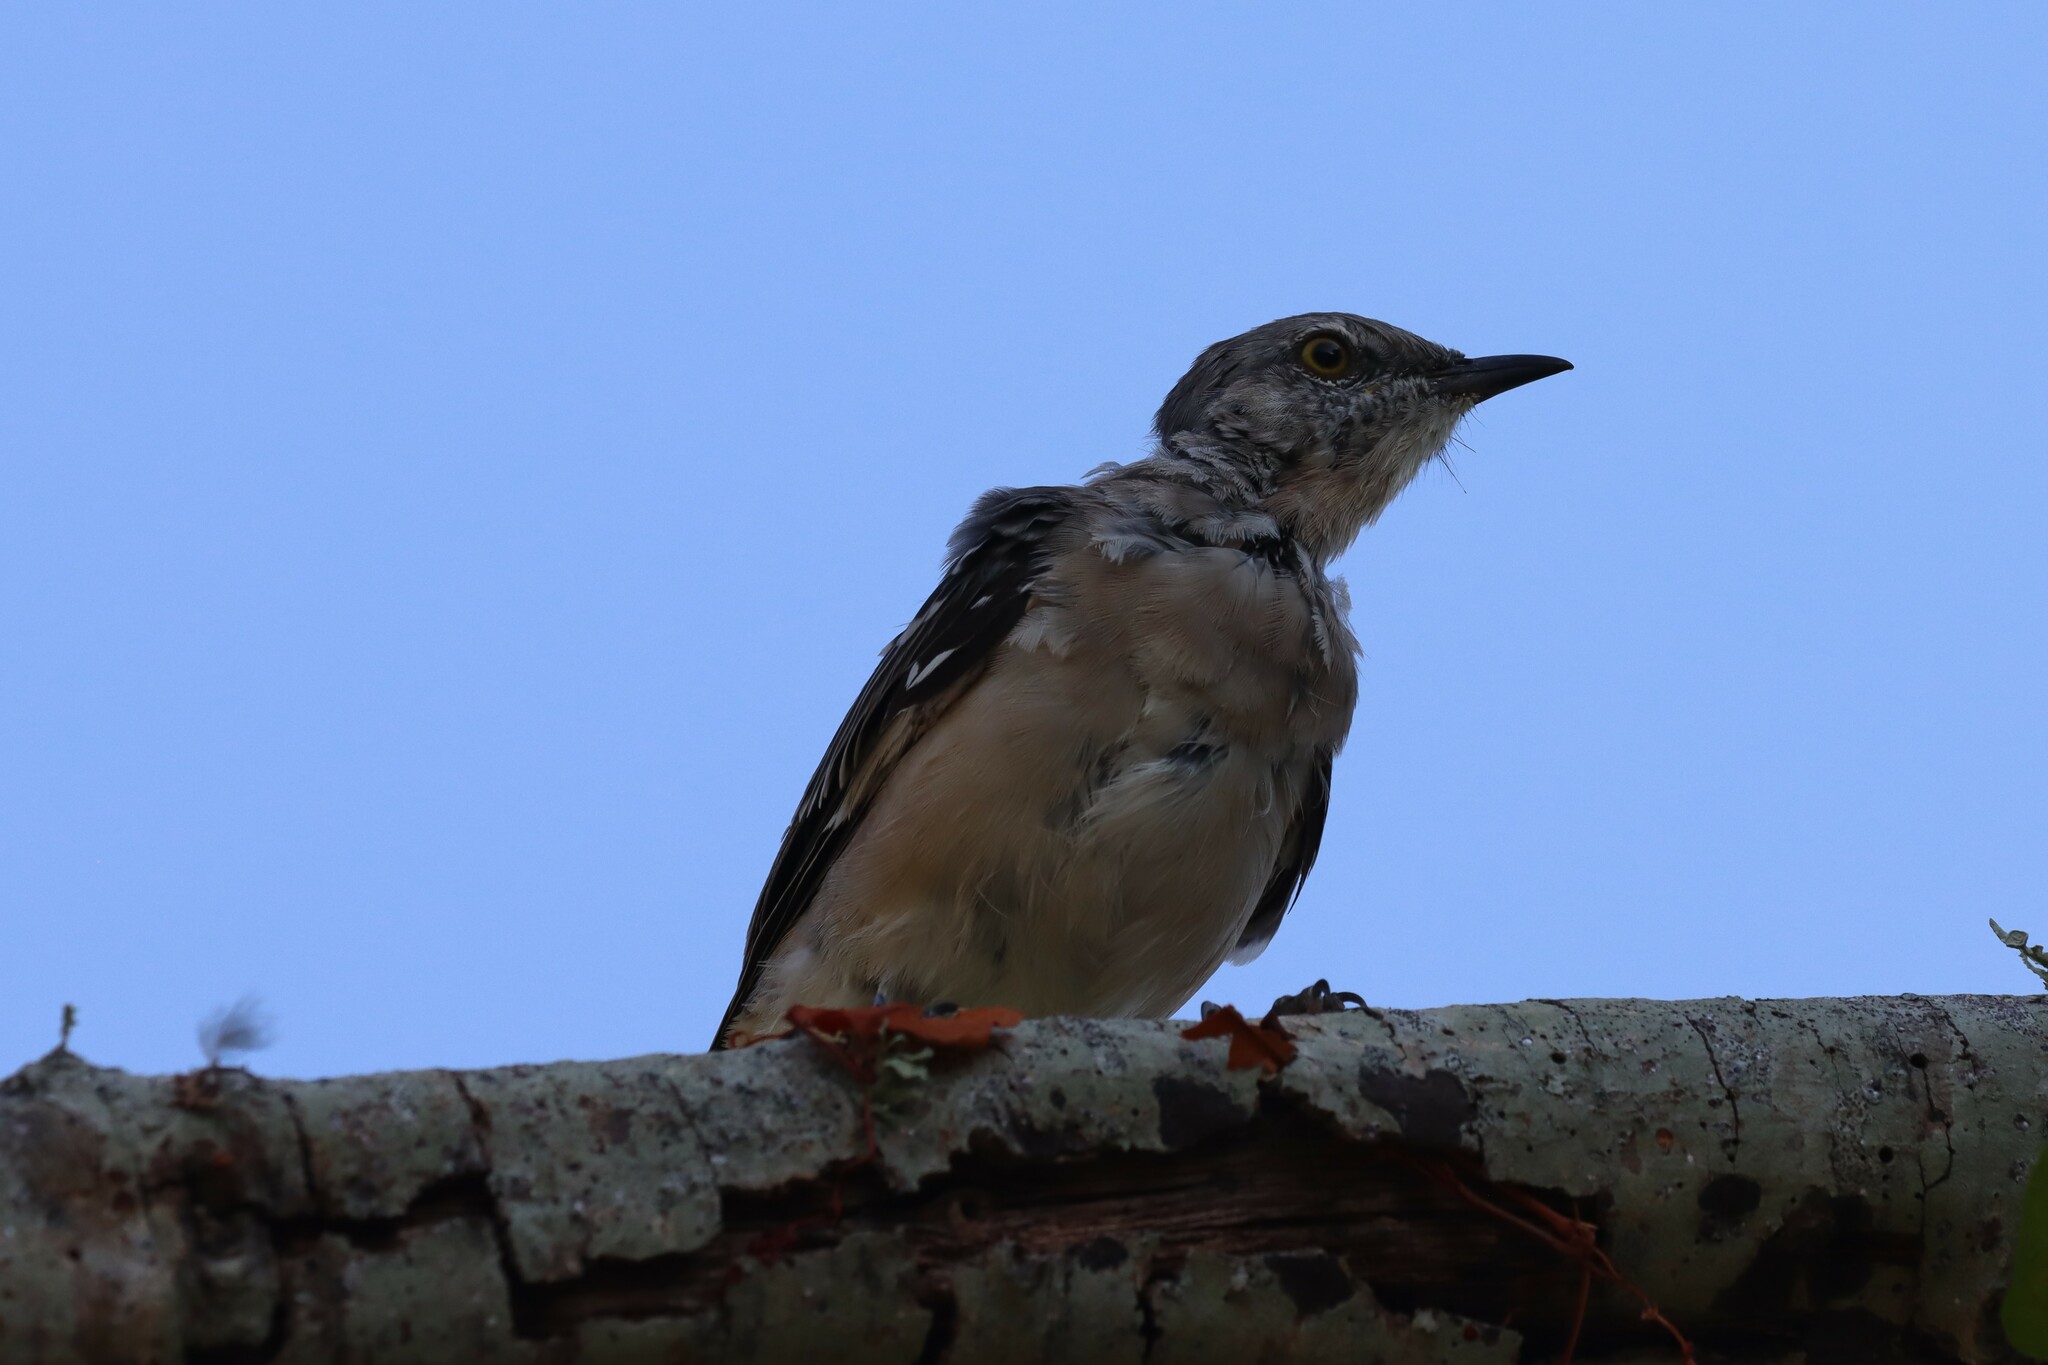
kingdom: Animalia
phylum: Chordata
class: Aves
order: Passeriformes
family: Mimidae
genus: Mimus
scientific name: Mimus polyglottos
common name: Northern mockingbird
